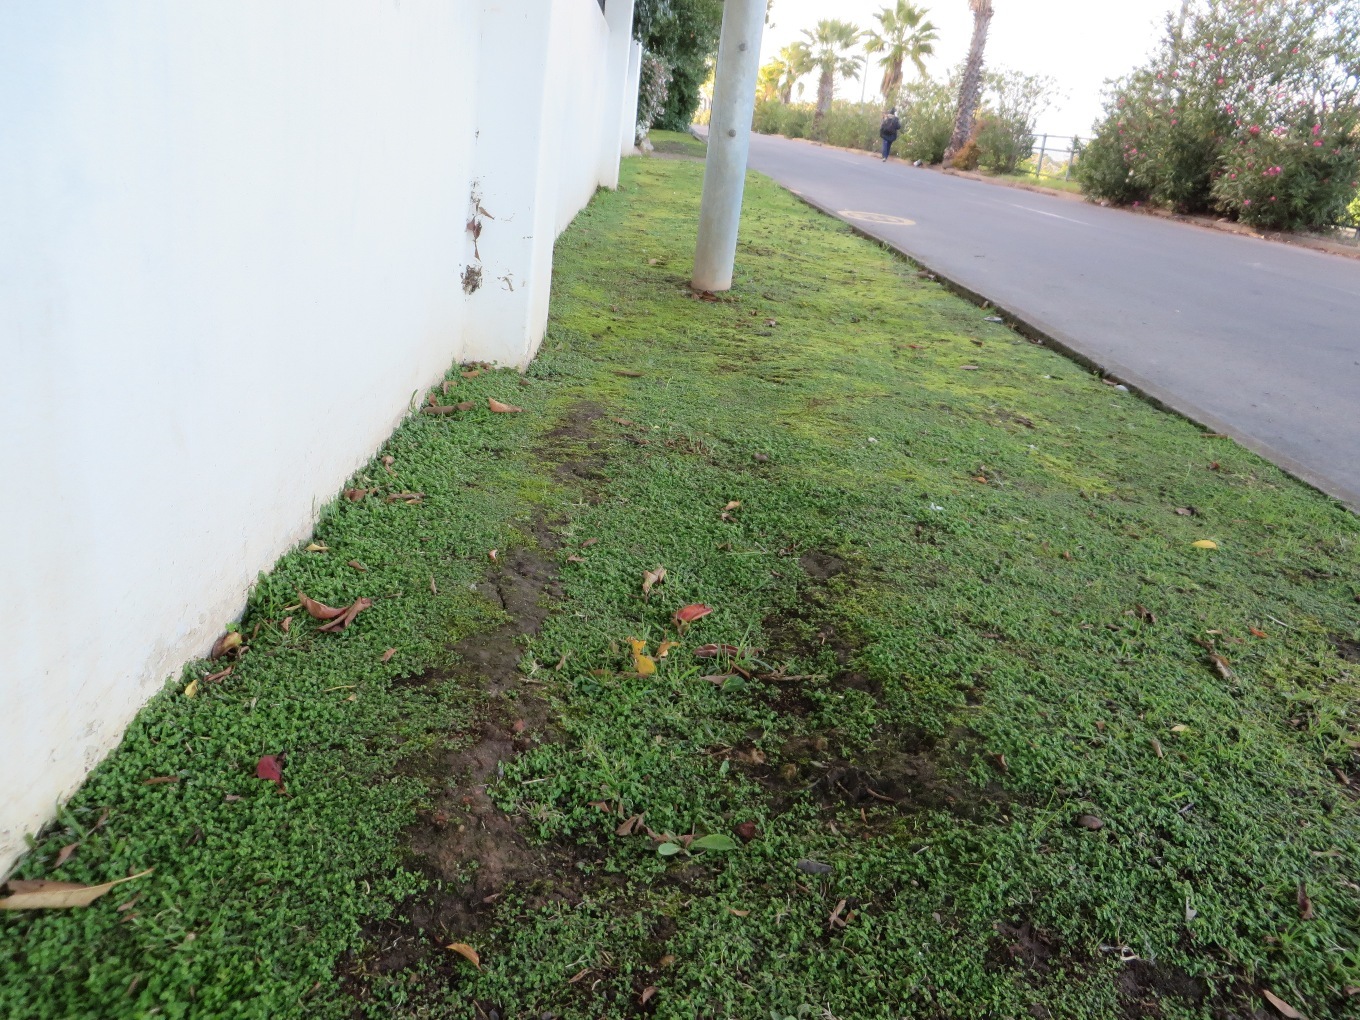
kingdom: Plantae
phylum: Tracheophyta
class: Magnoliopsida
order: Rosales
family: Urticaceae
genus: Soleirolia
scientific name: Soleirolia soleirolii
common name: Mind-your-own-business
